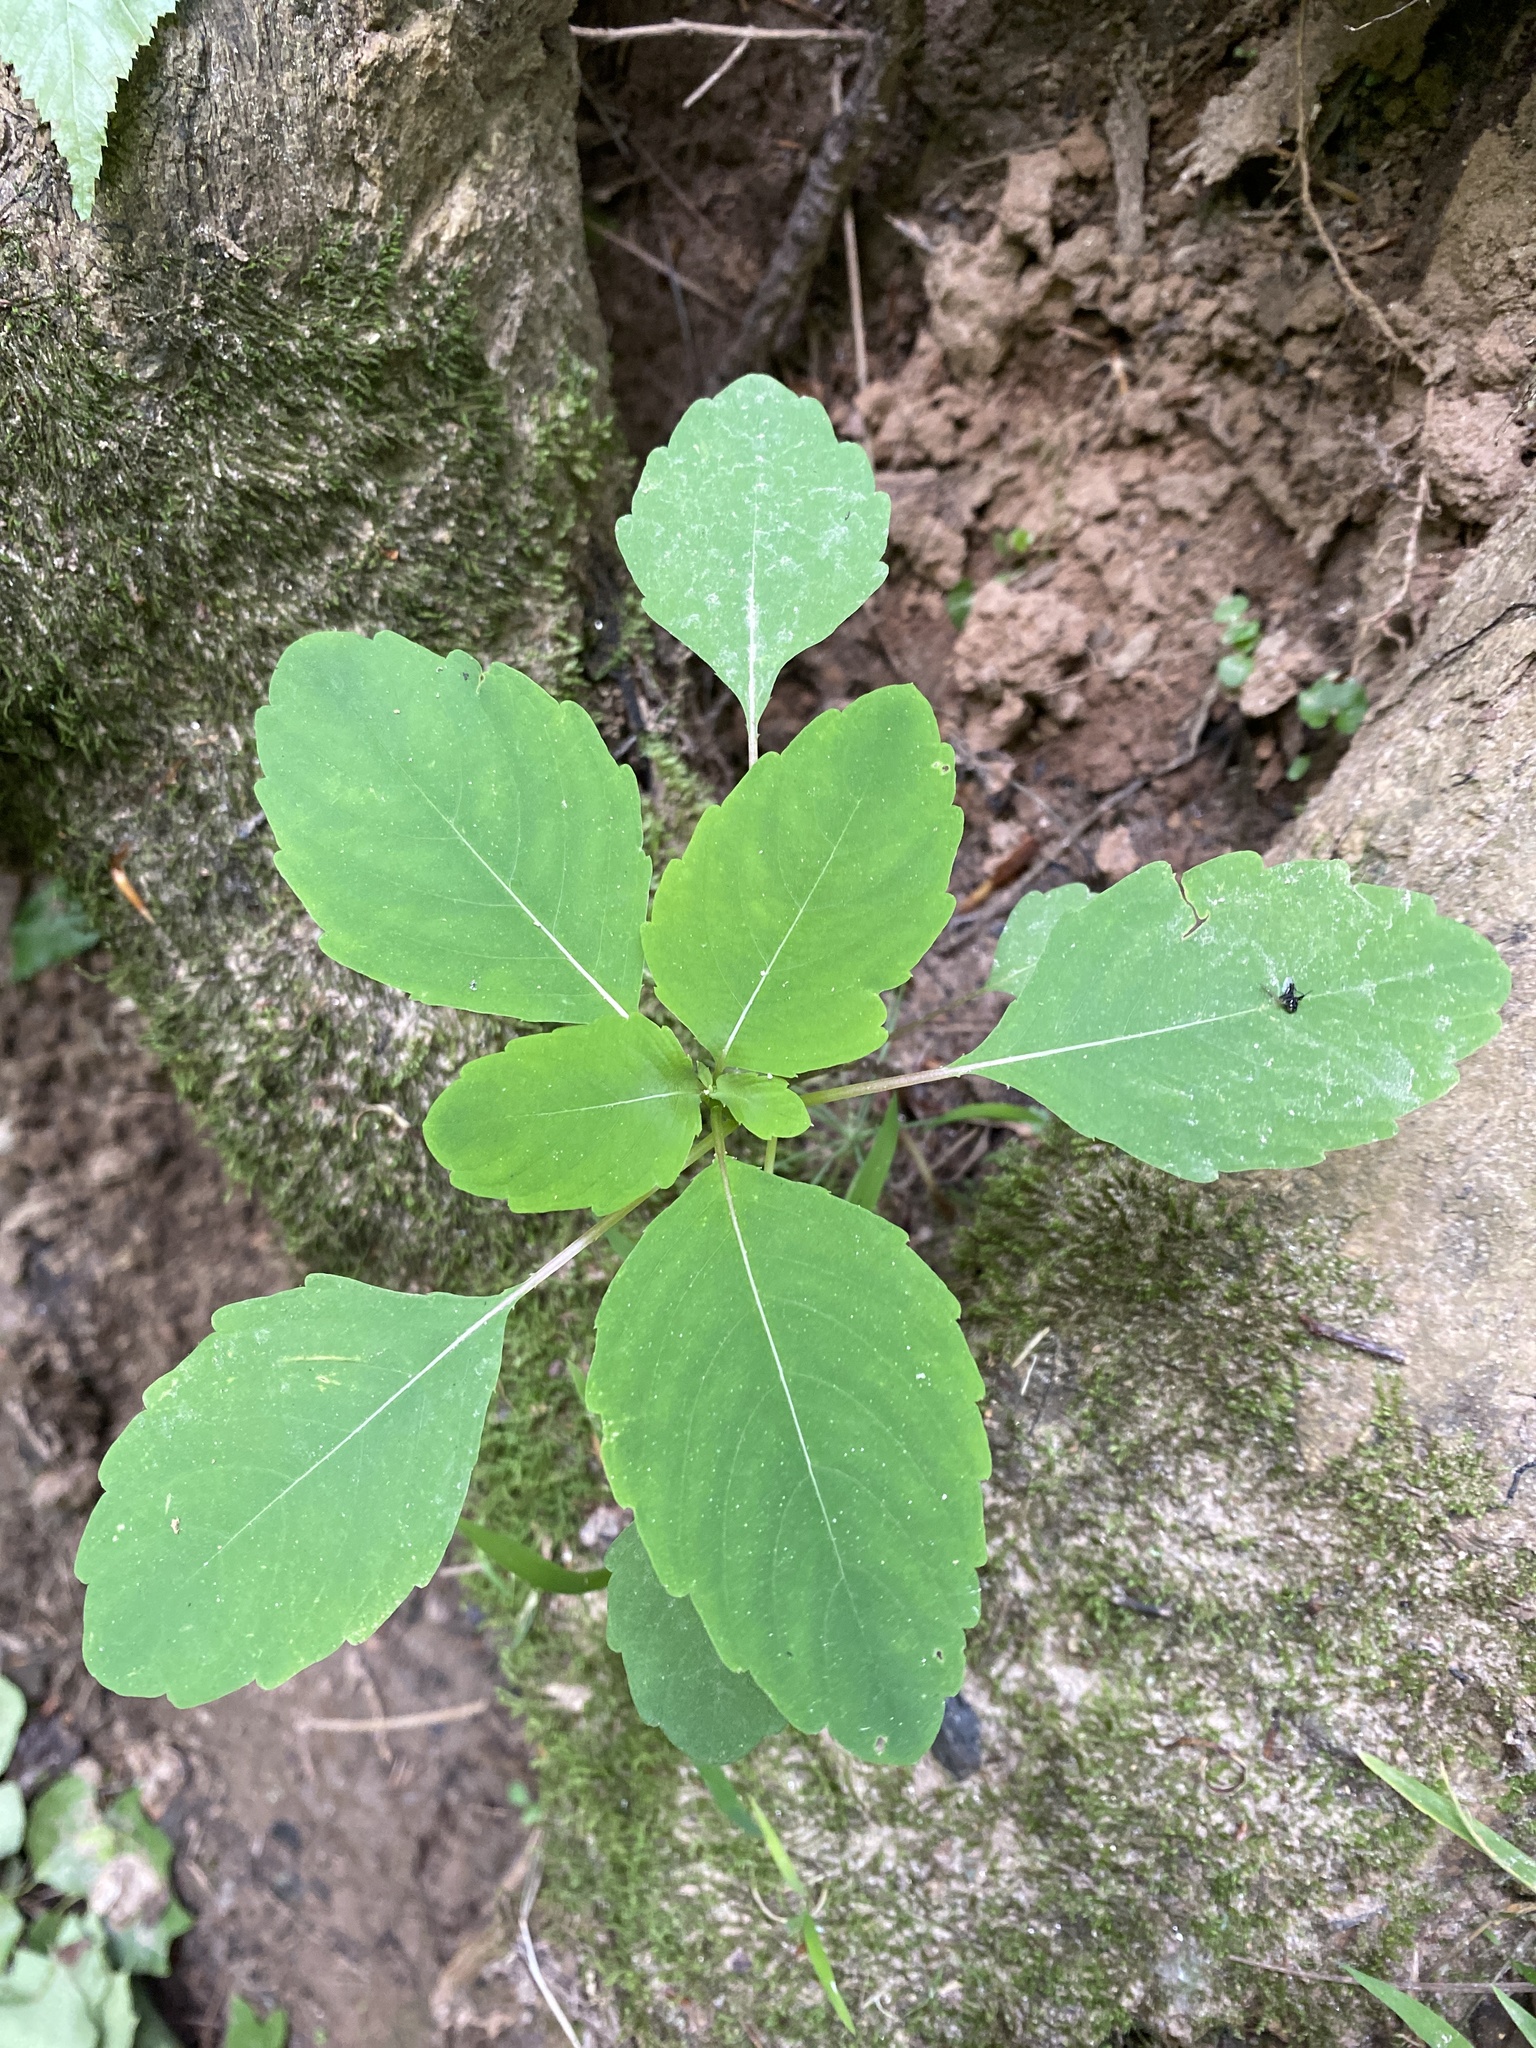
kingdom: Plantae
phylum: Tracheophyta
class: Magnoliopsida
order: Ericales
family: Balsaminaceae
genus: Impatiens
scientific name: Impatiens capensis
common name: Orange balsam
